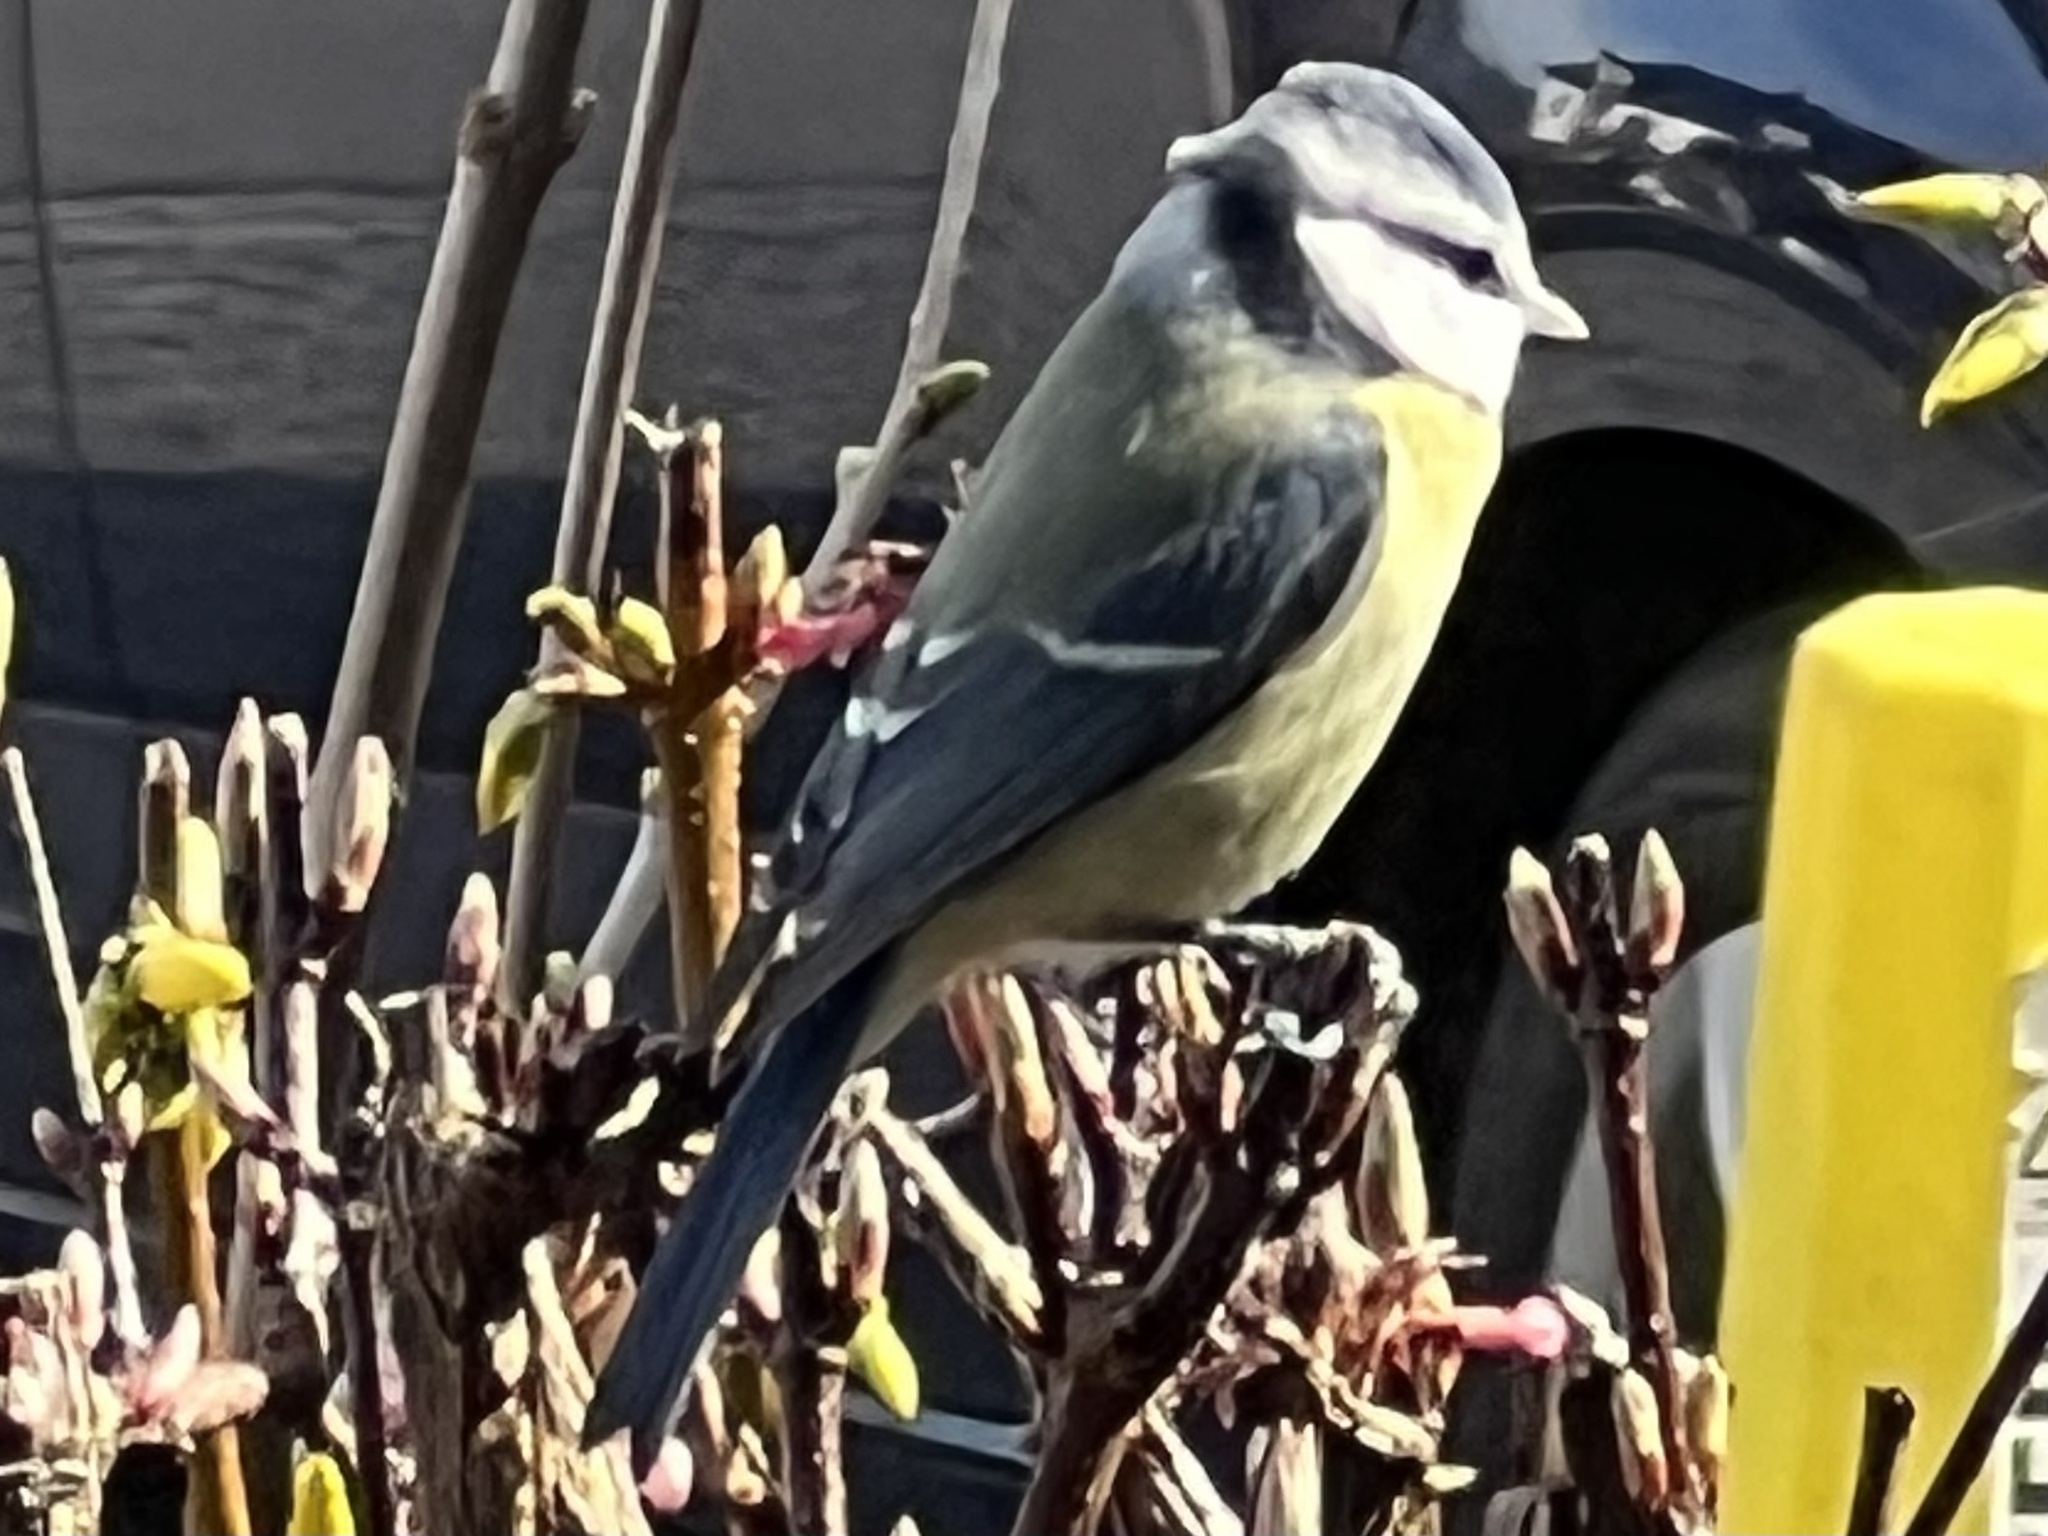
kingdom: Animalia
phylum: Chordata
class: Aves
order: Passeriformes
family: Paridae
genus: Cyanistes
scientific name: Cyanistes caeruleus
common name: Eurasian blue tit
